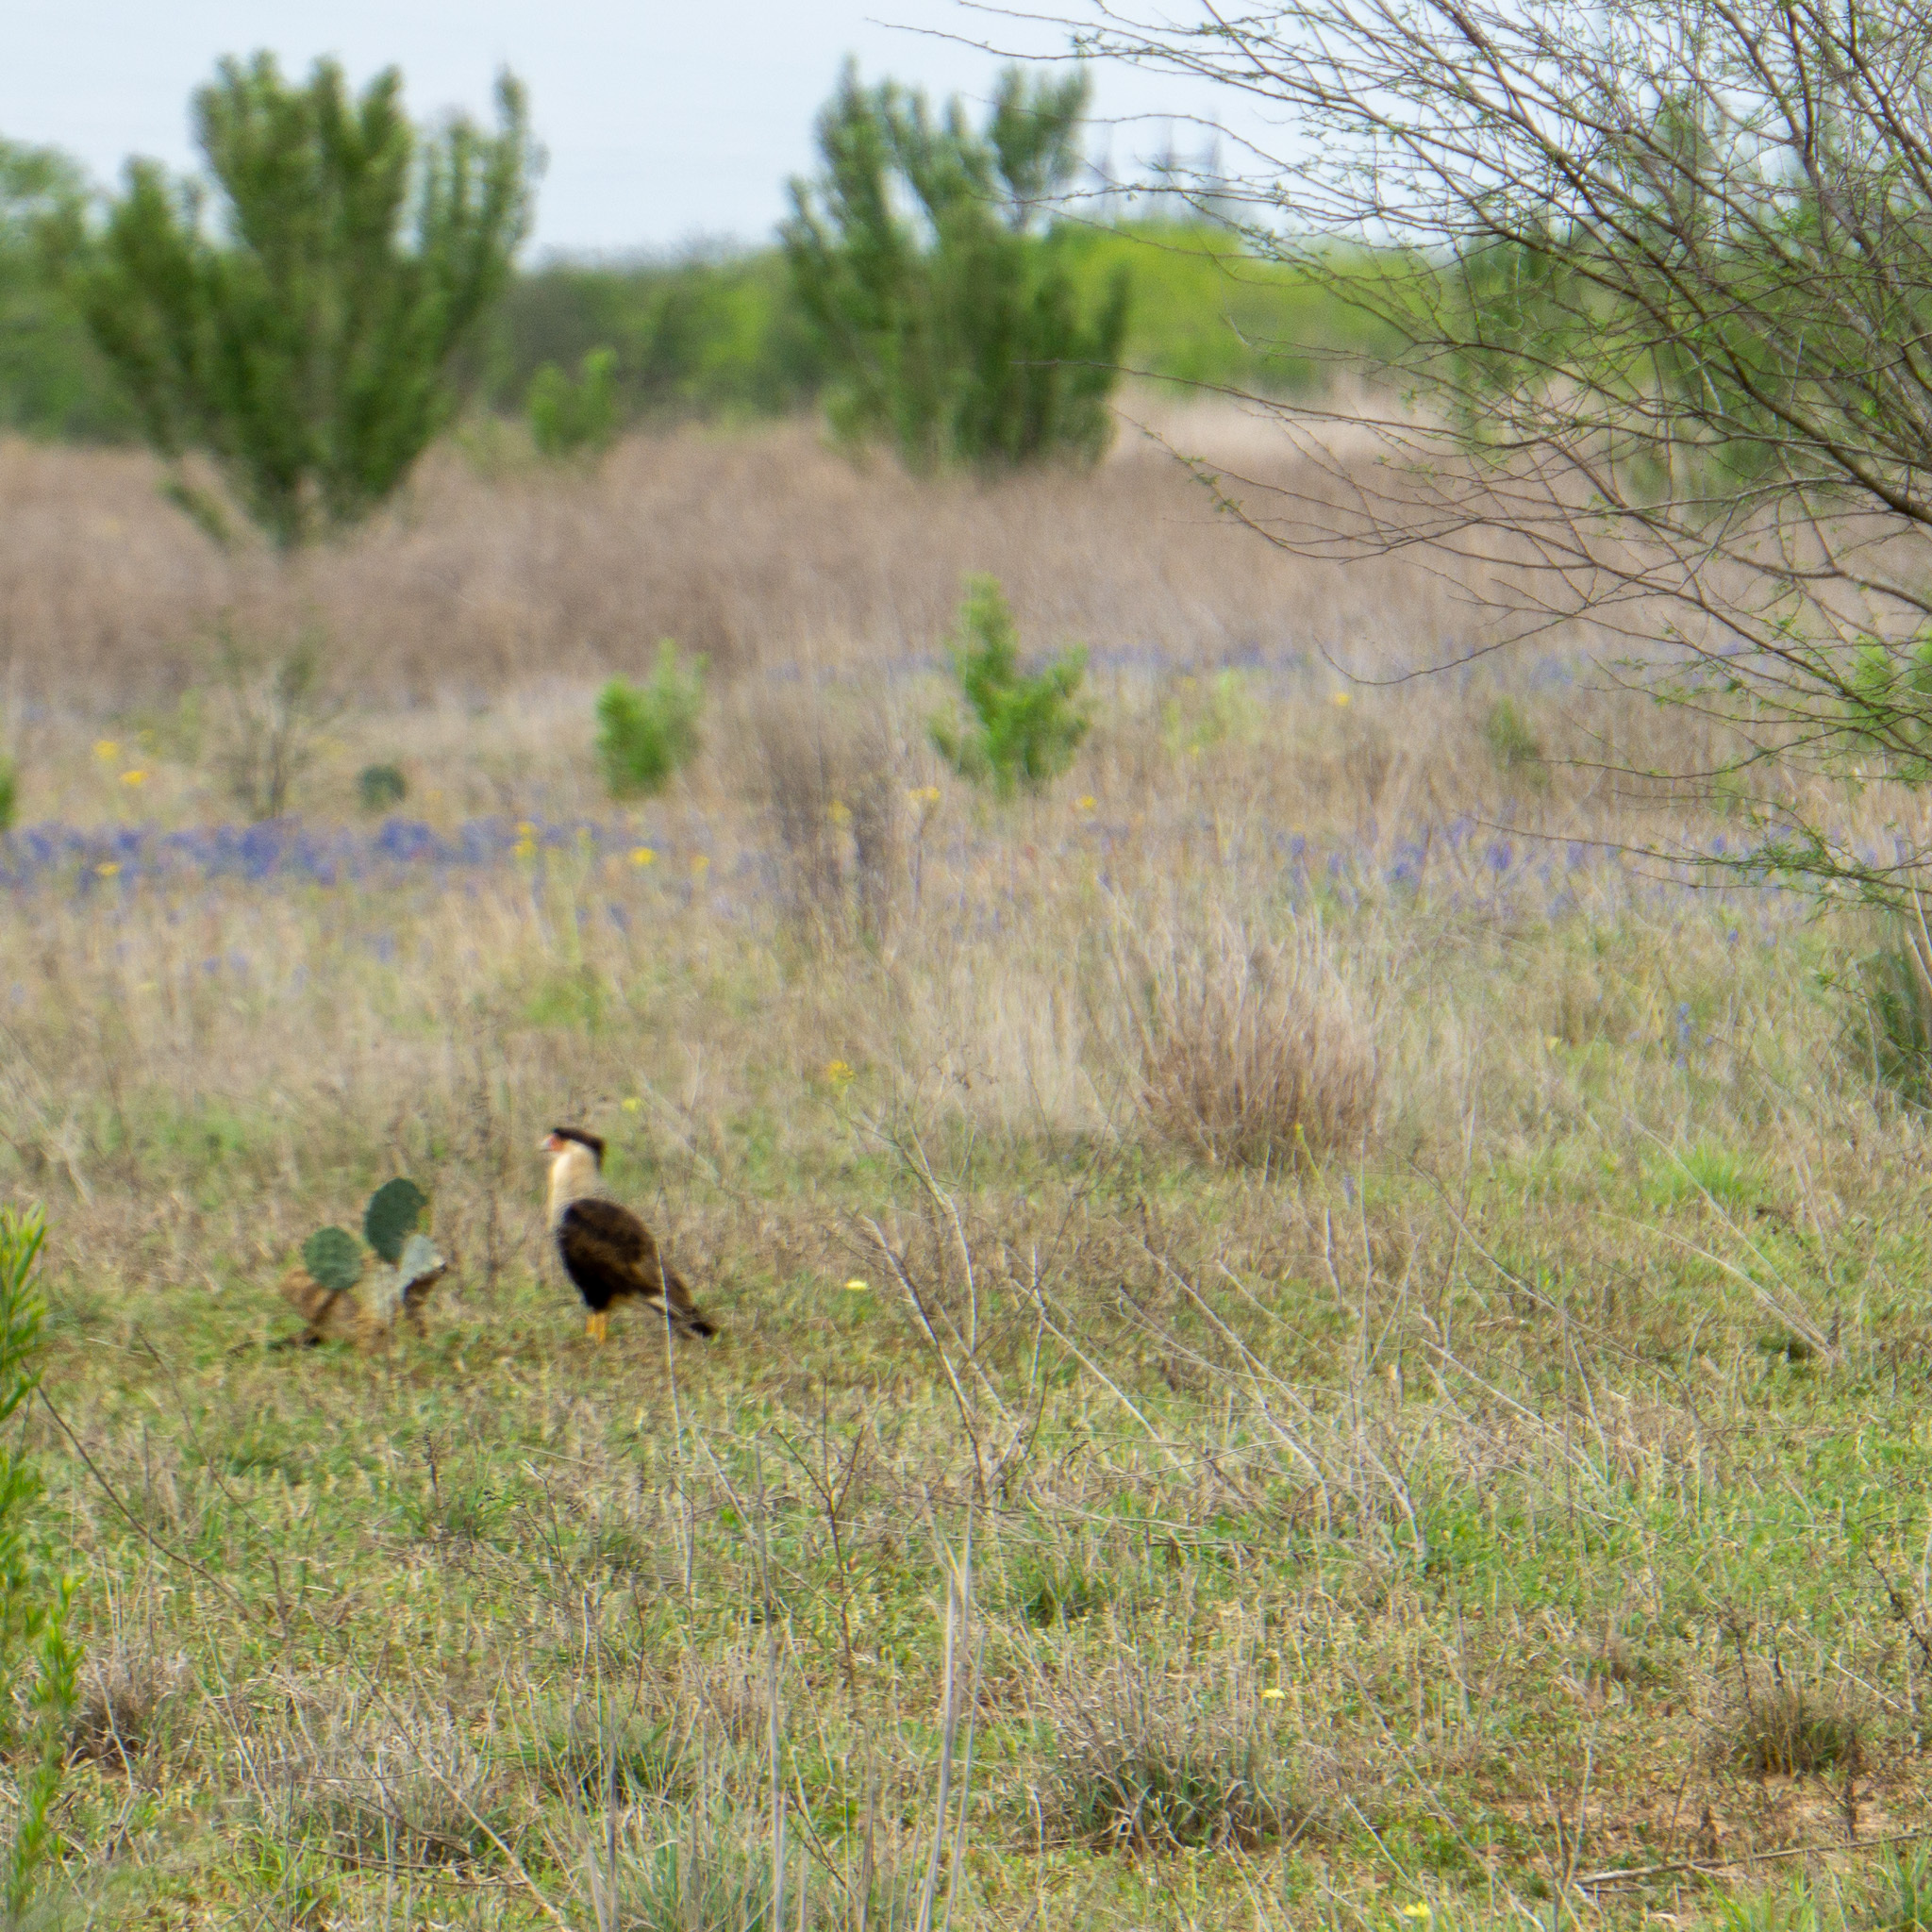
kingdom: Animalia
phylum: Chordata
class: Aves
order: Falconiformes
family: Falconidae
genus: Caracara
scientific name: Caracara plancus
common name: Southern caracara
